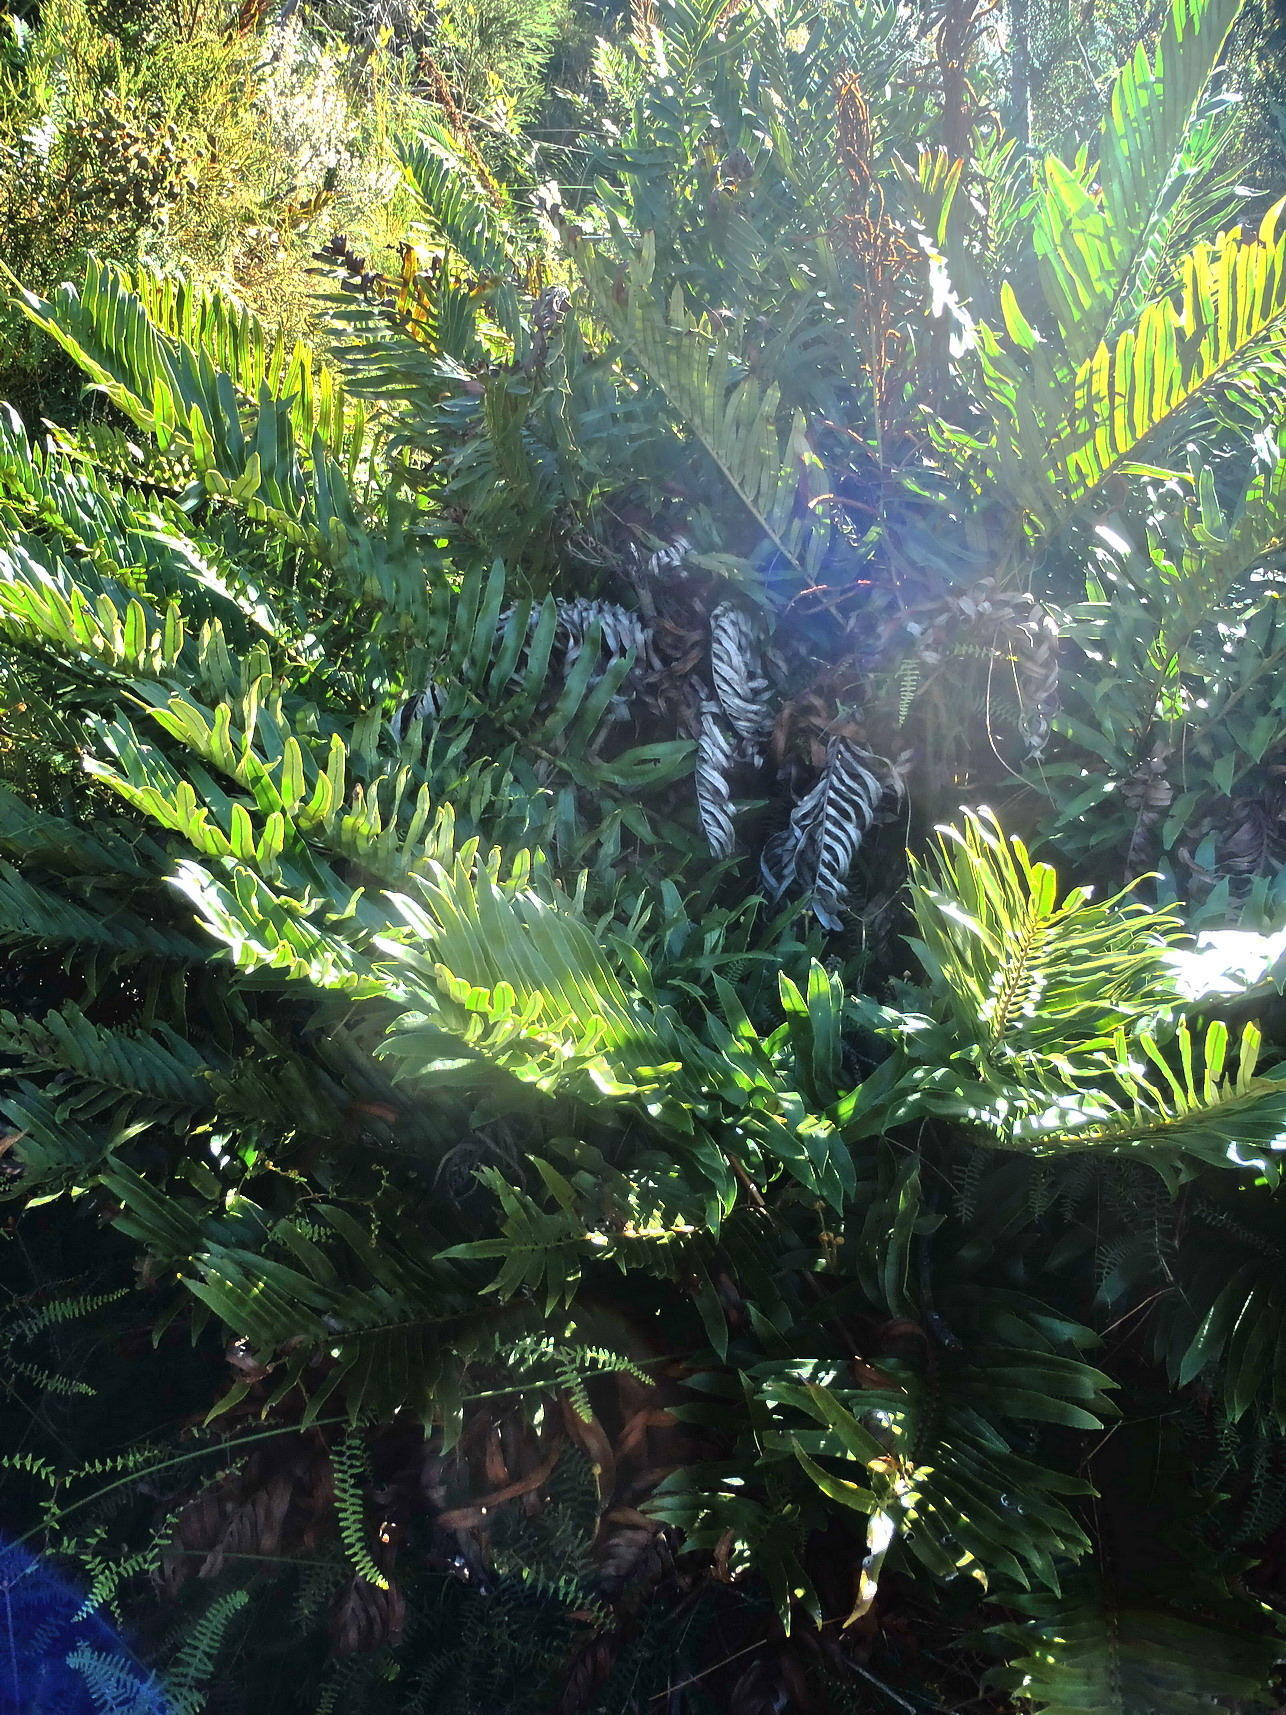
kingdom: Plantae
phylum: Tracheophyta
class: Polypodiopsida
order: Polypodiales
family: Blechnaceae
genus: Lomariocycas
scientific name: Lomariocycas tabularis
